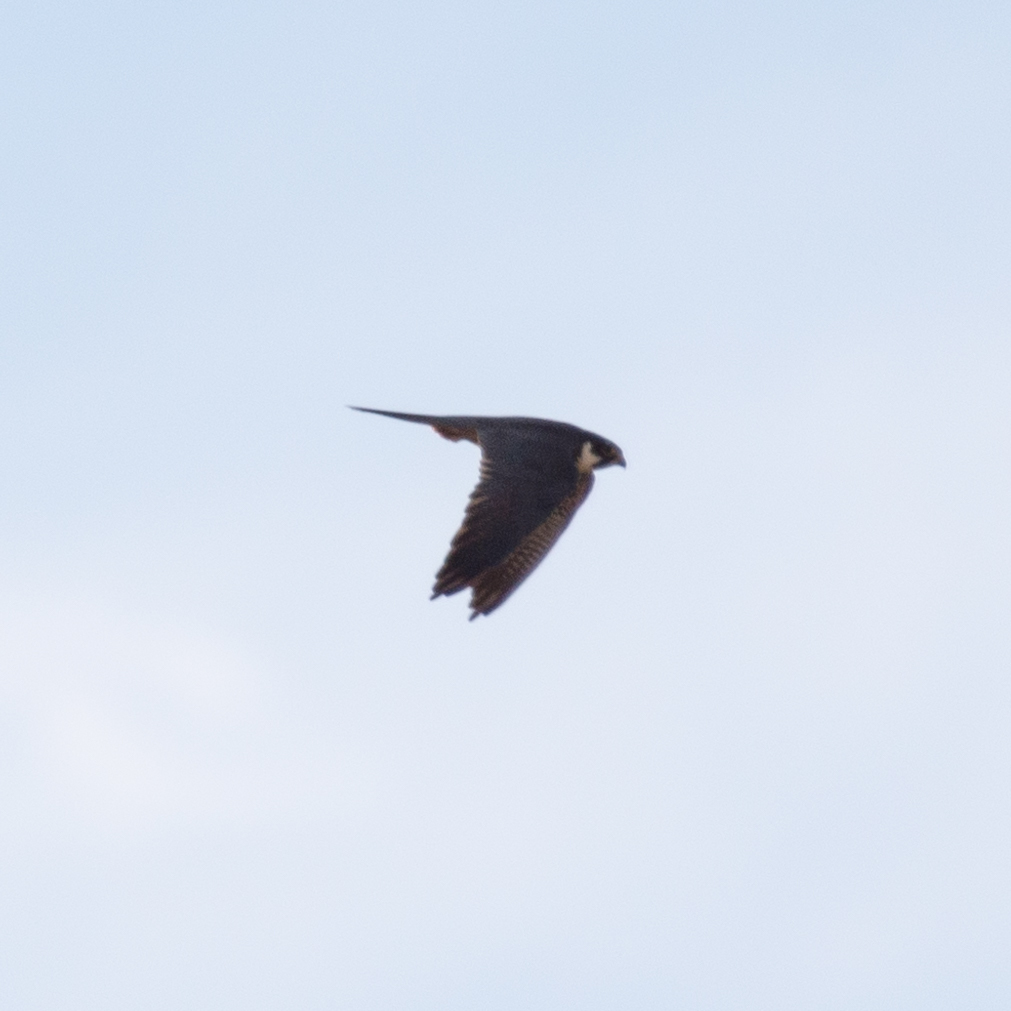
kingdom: Animalia
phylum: Chordata
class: Aves
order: Falconiformes
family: Falconidae
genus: Falco
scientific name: Falco subbuteo
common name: Eurasian hobby
